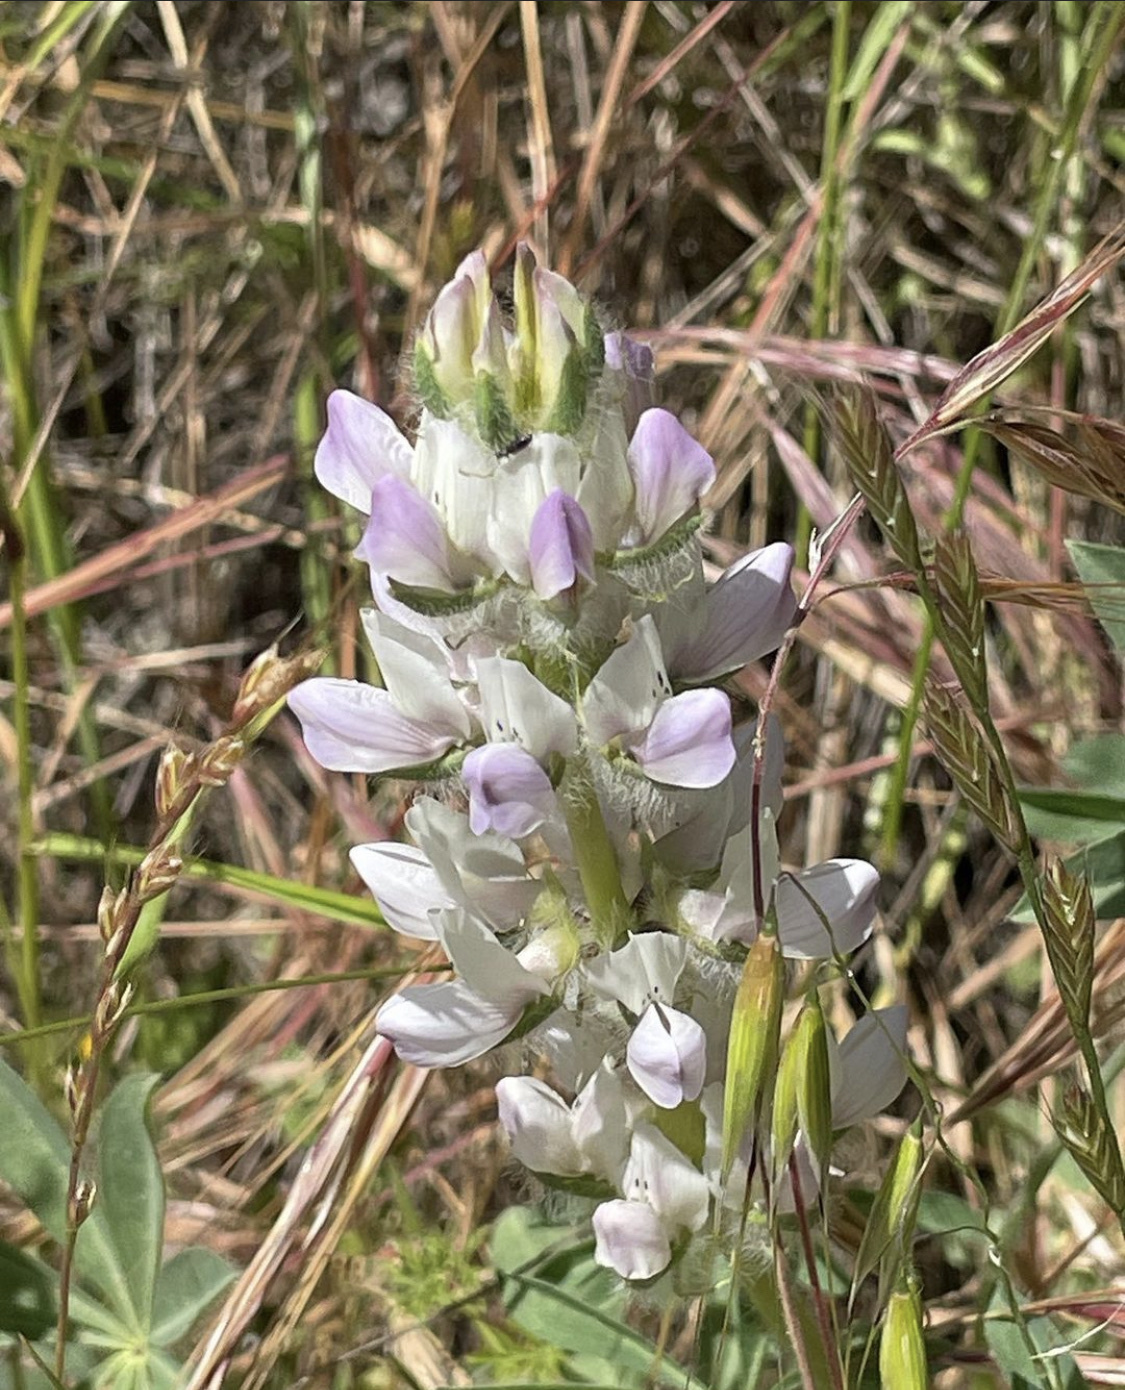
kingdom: Plantae
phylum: Tracheophyta
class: Magnoliopsida
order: Fabales
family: Fabaceae
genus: Lupinus
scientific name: Lupinus microcarpus
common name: Chick lupine
